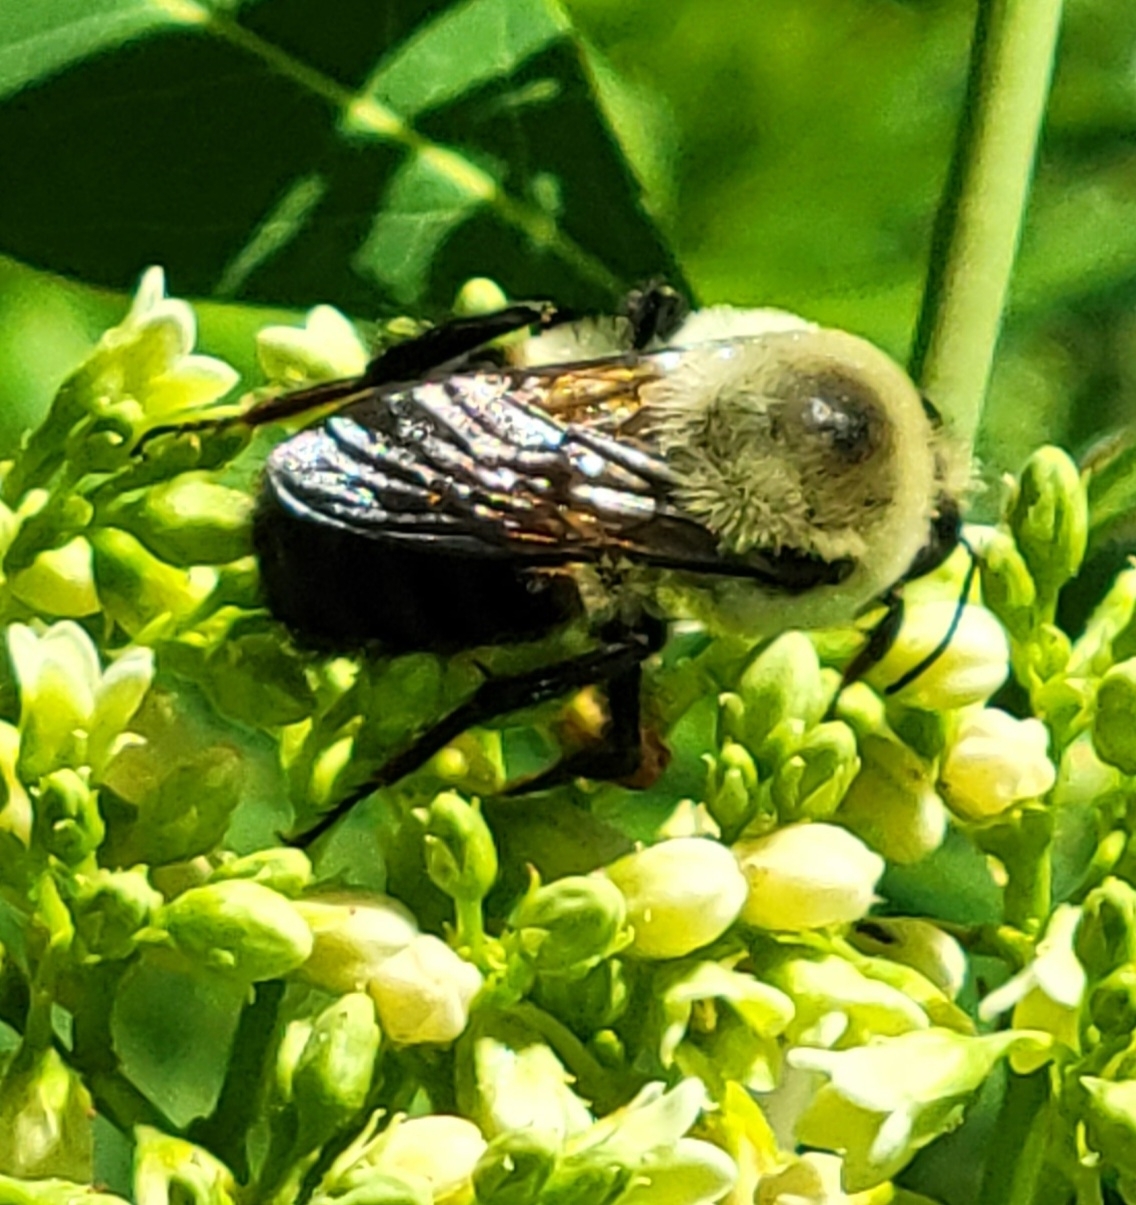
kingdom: Animalia
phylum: Arthropoda
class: Insecta
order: Hymenoptera
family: Apidae
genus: Bombus
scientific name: Bombus griseocollis
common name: Brown-belted bumble bee
